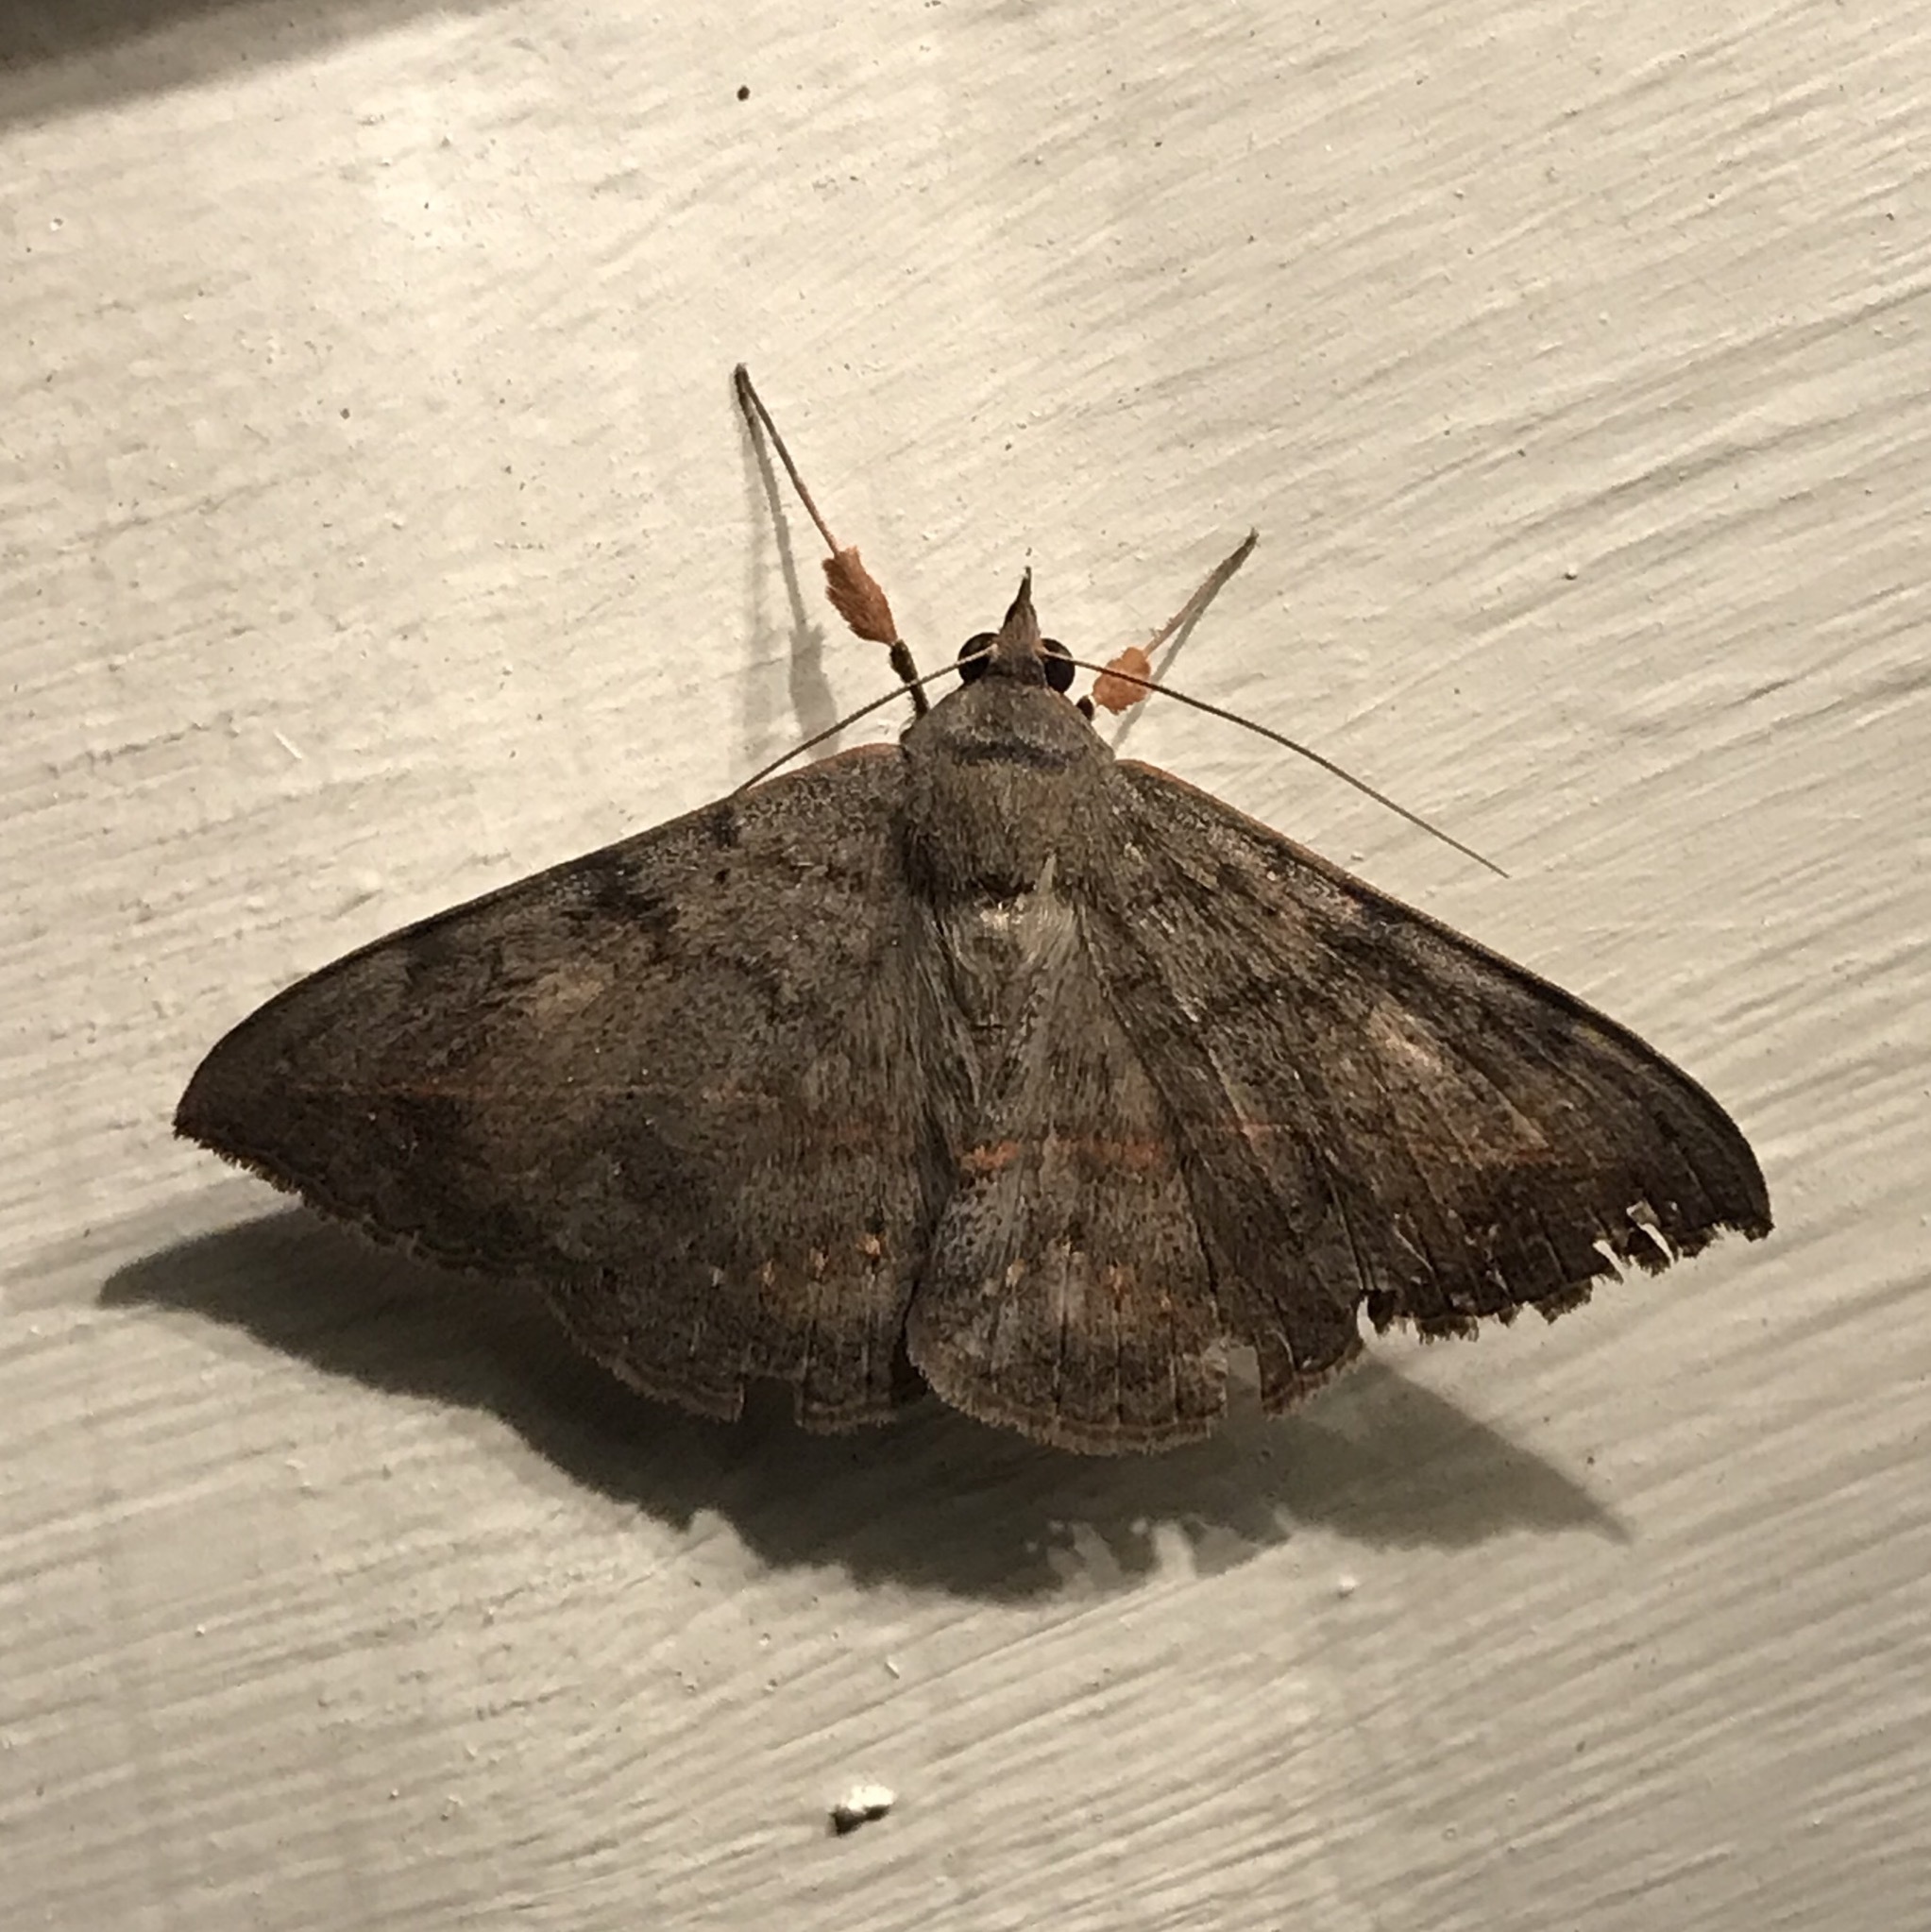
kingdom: Animalia
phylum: Arthropoda
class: Insecta
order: Lepidoptera
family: Erebidae
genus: Anticarsia
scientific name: Anticarsia gemmatalis
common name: Cutworm moth
